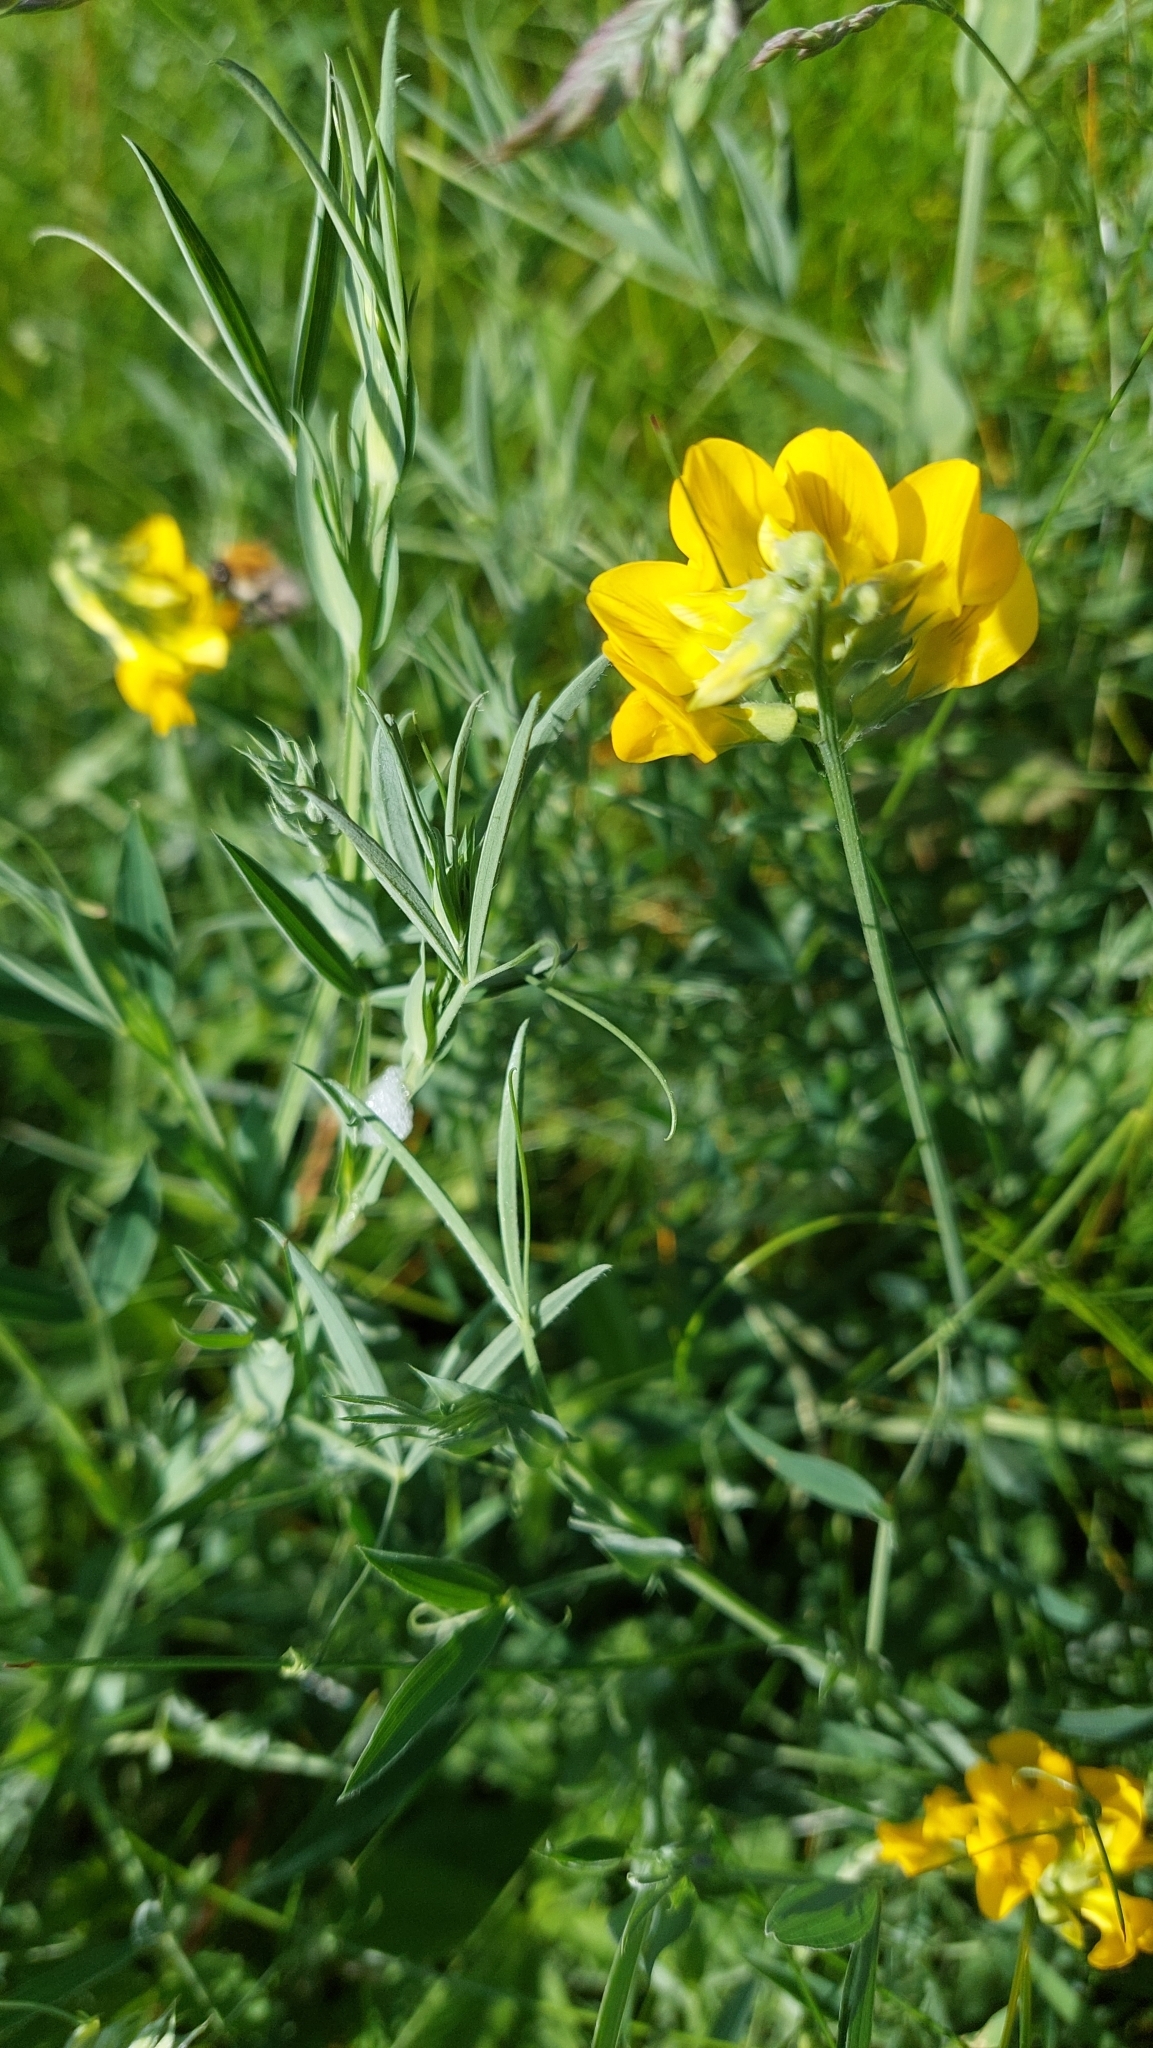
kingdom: Plantae
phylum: Tracheophyta
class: Magnoliopsida
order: Fabales
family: Fabaceae
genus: Lathyrus
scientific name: Lathyrus pratensis
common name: Meadow vetchling
